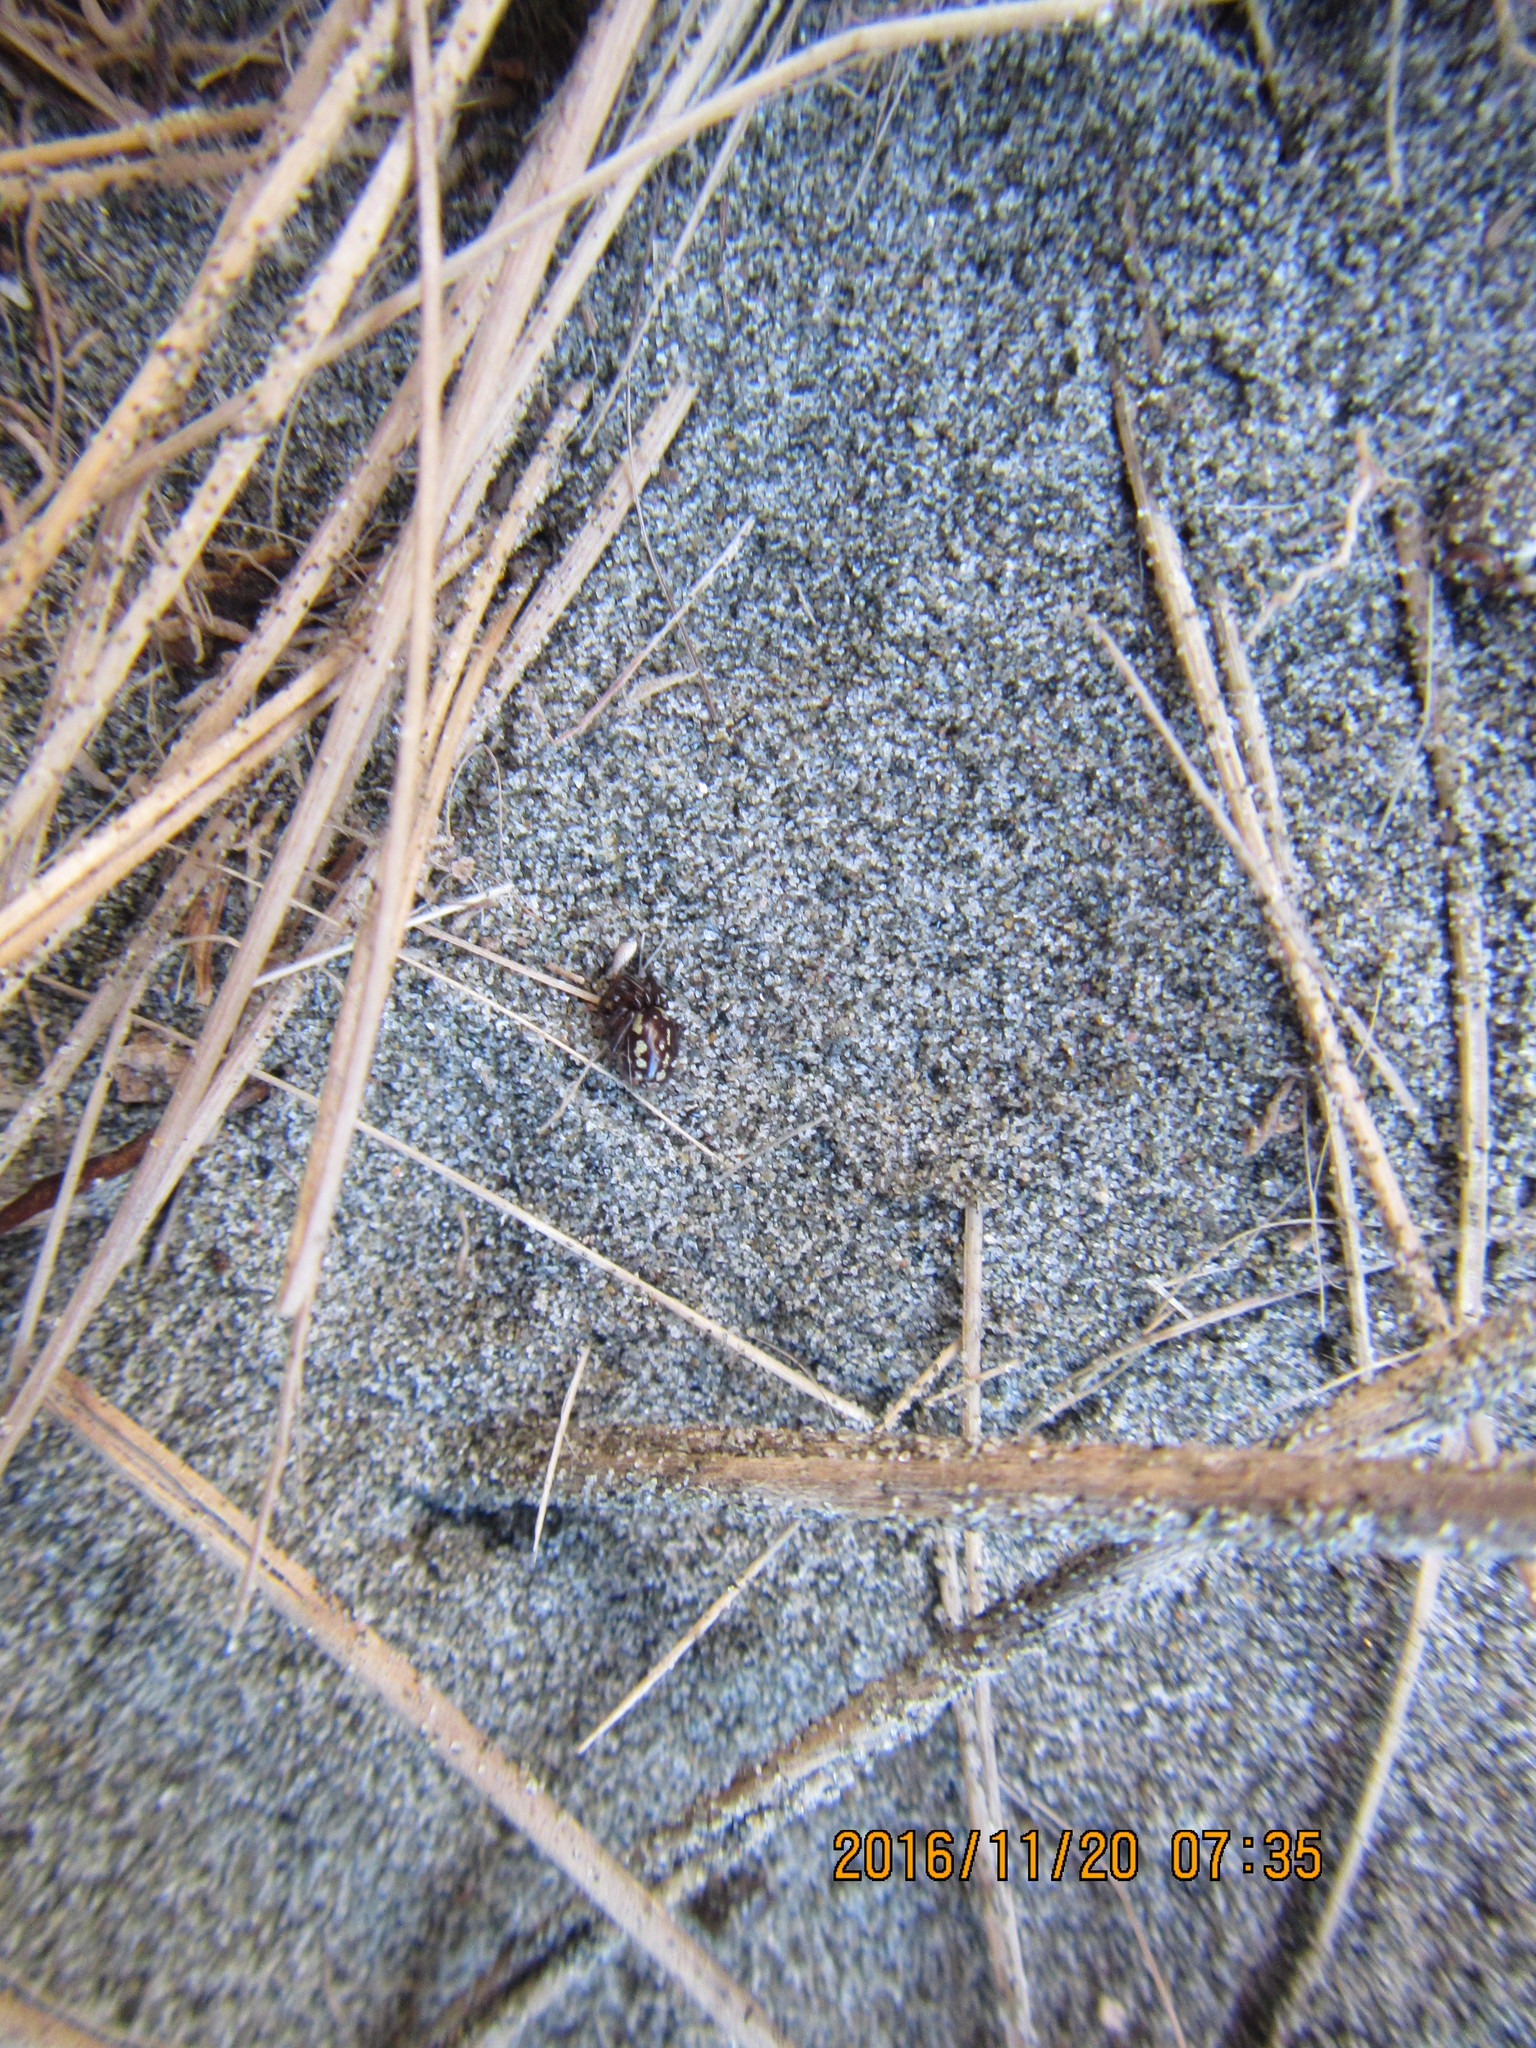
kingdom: Animalia
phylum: Arthropoda
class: Arachnida
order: Araneae
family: Theridiidae
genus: Steatoda
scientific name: Steatoda lepida
